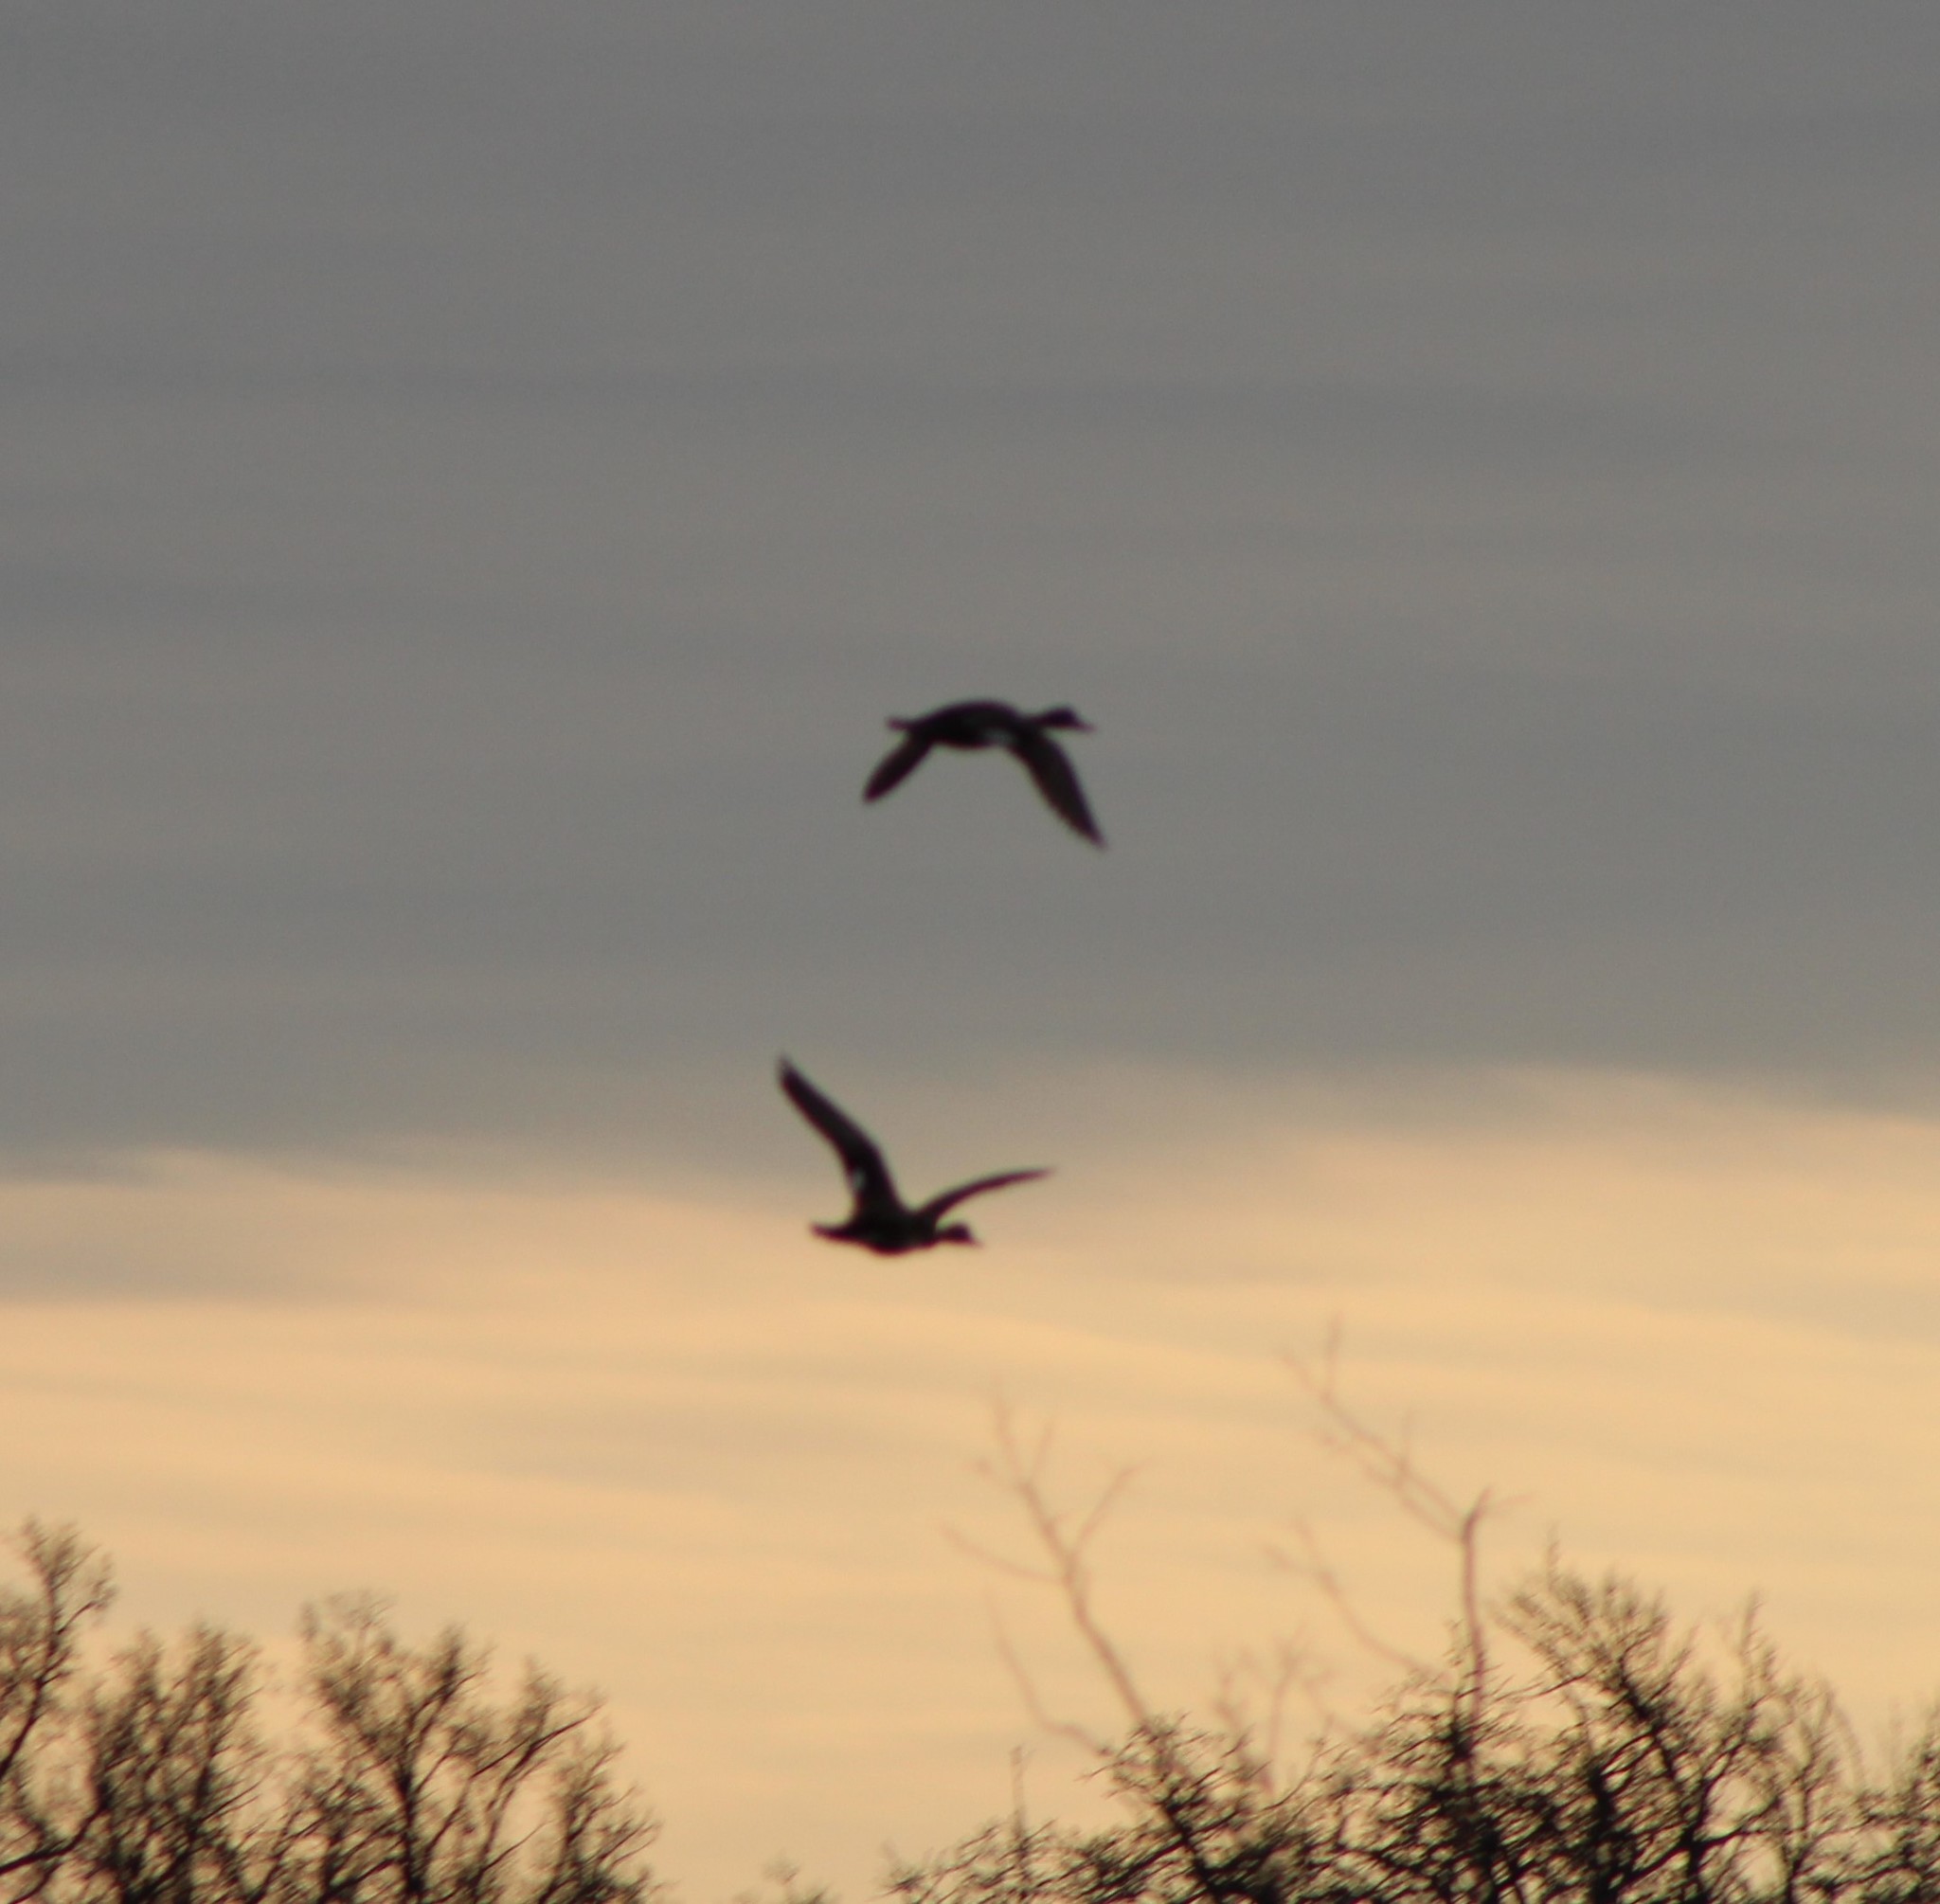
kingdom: Animalia
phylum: Chordata
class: Aves
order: Anseriformes
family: Anatidae
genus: Mareca
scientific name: Mareca strepera
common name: Gadwall
